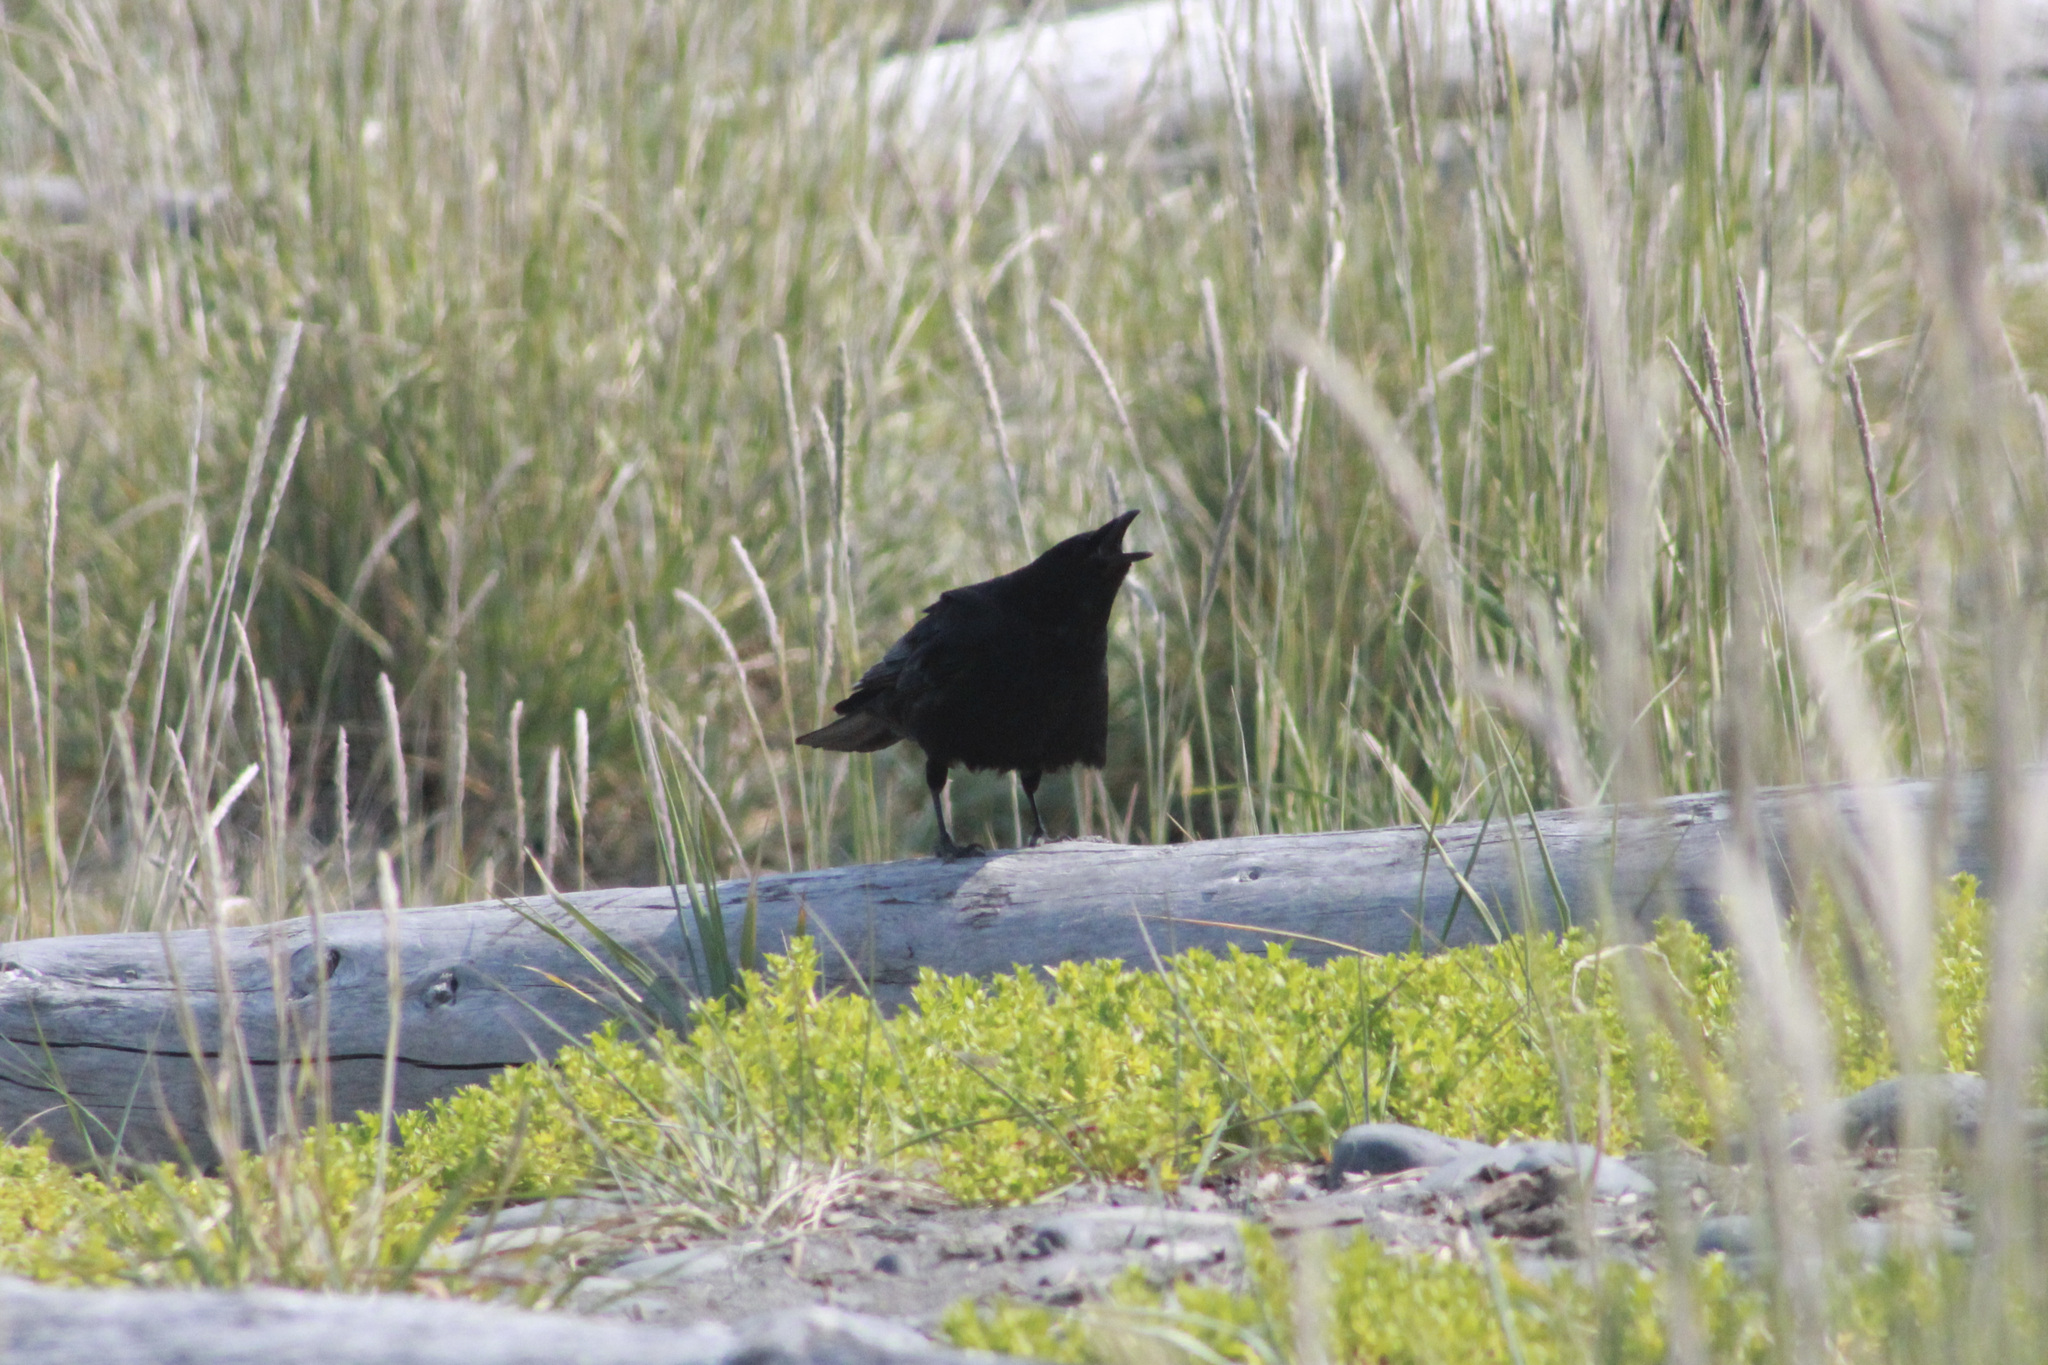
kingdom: Animalia
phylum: Chordata
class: Aves
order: Passeriformes
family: Corvidae
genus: Corvus
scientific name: Corvus brachyrhynchos
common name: American crow
